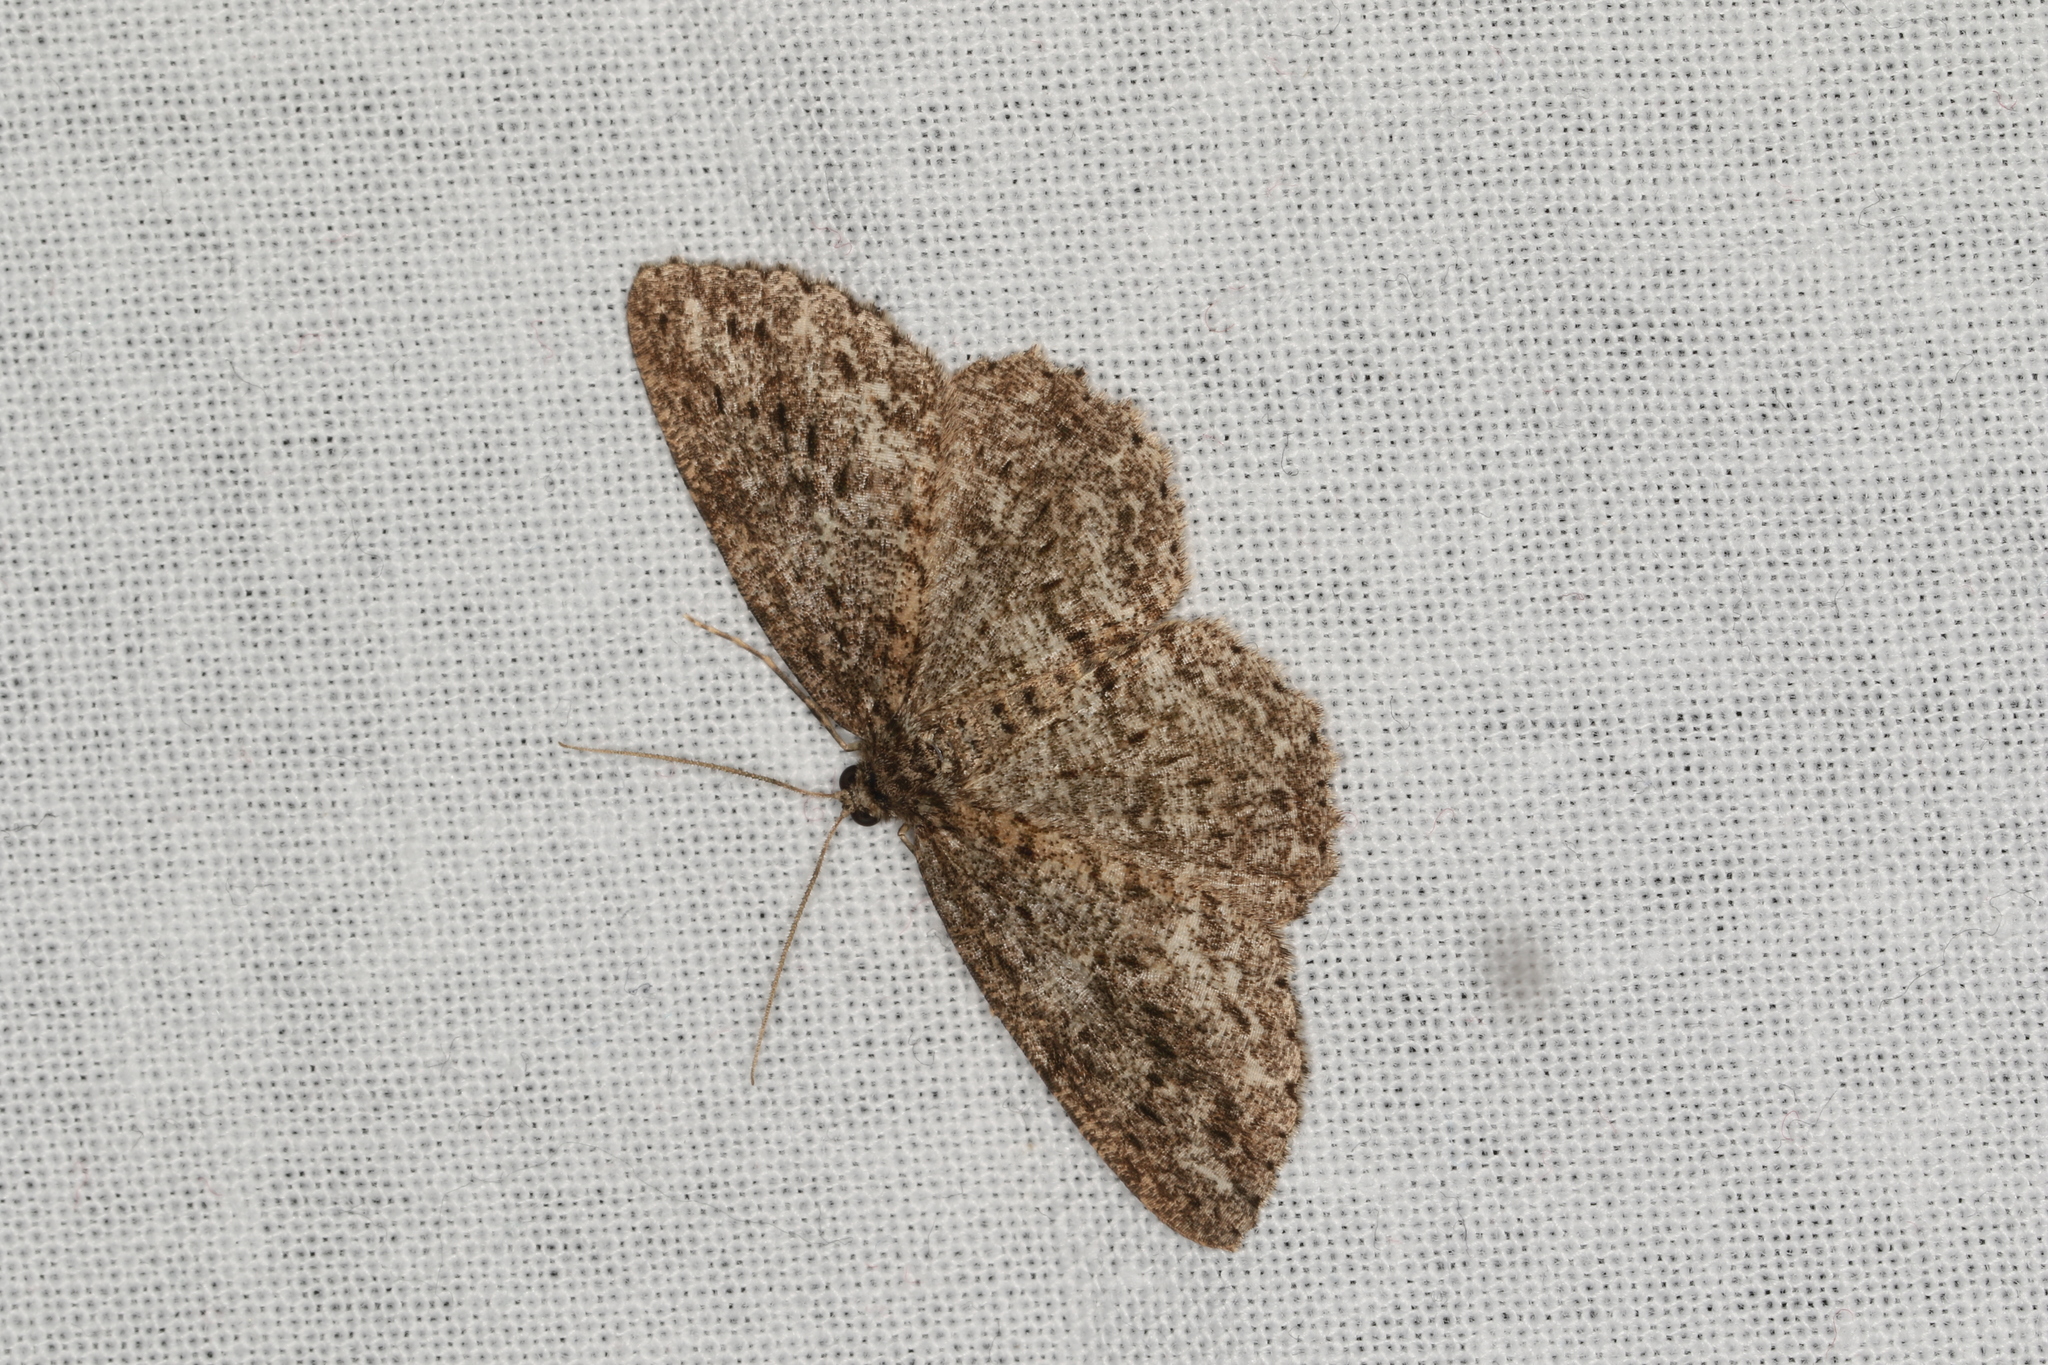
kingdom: Animalia
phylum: Arthropoda
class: Insecta
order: Lepidoptera
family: Geometridae
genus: Ectropis
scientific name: Ectropis fractaria
